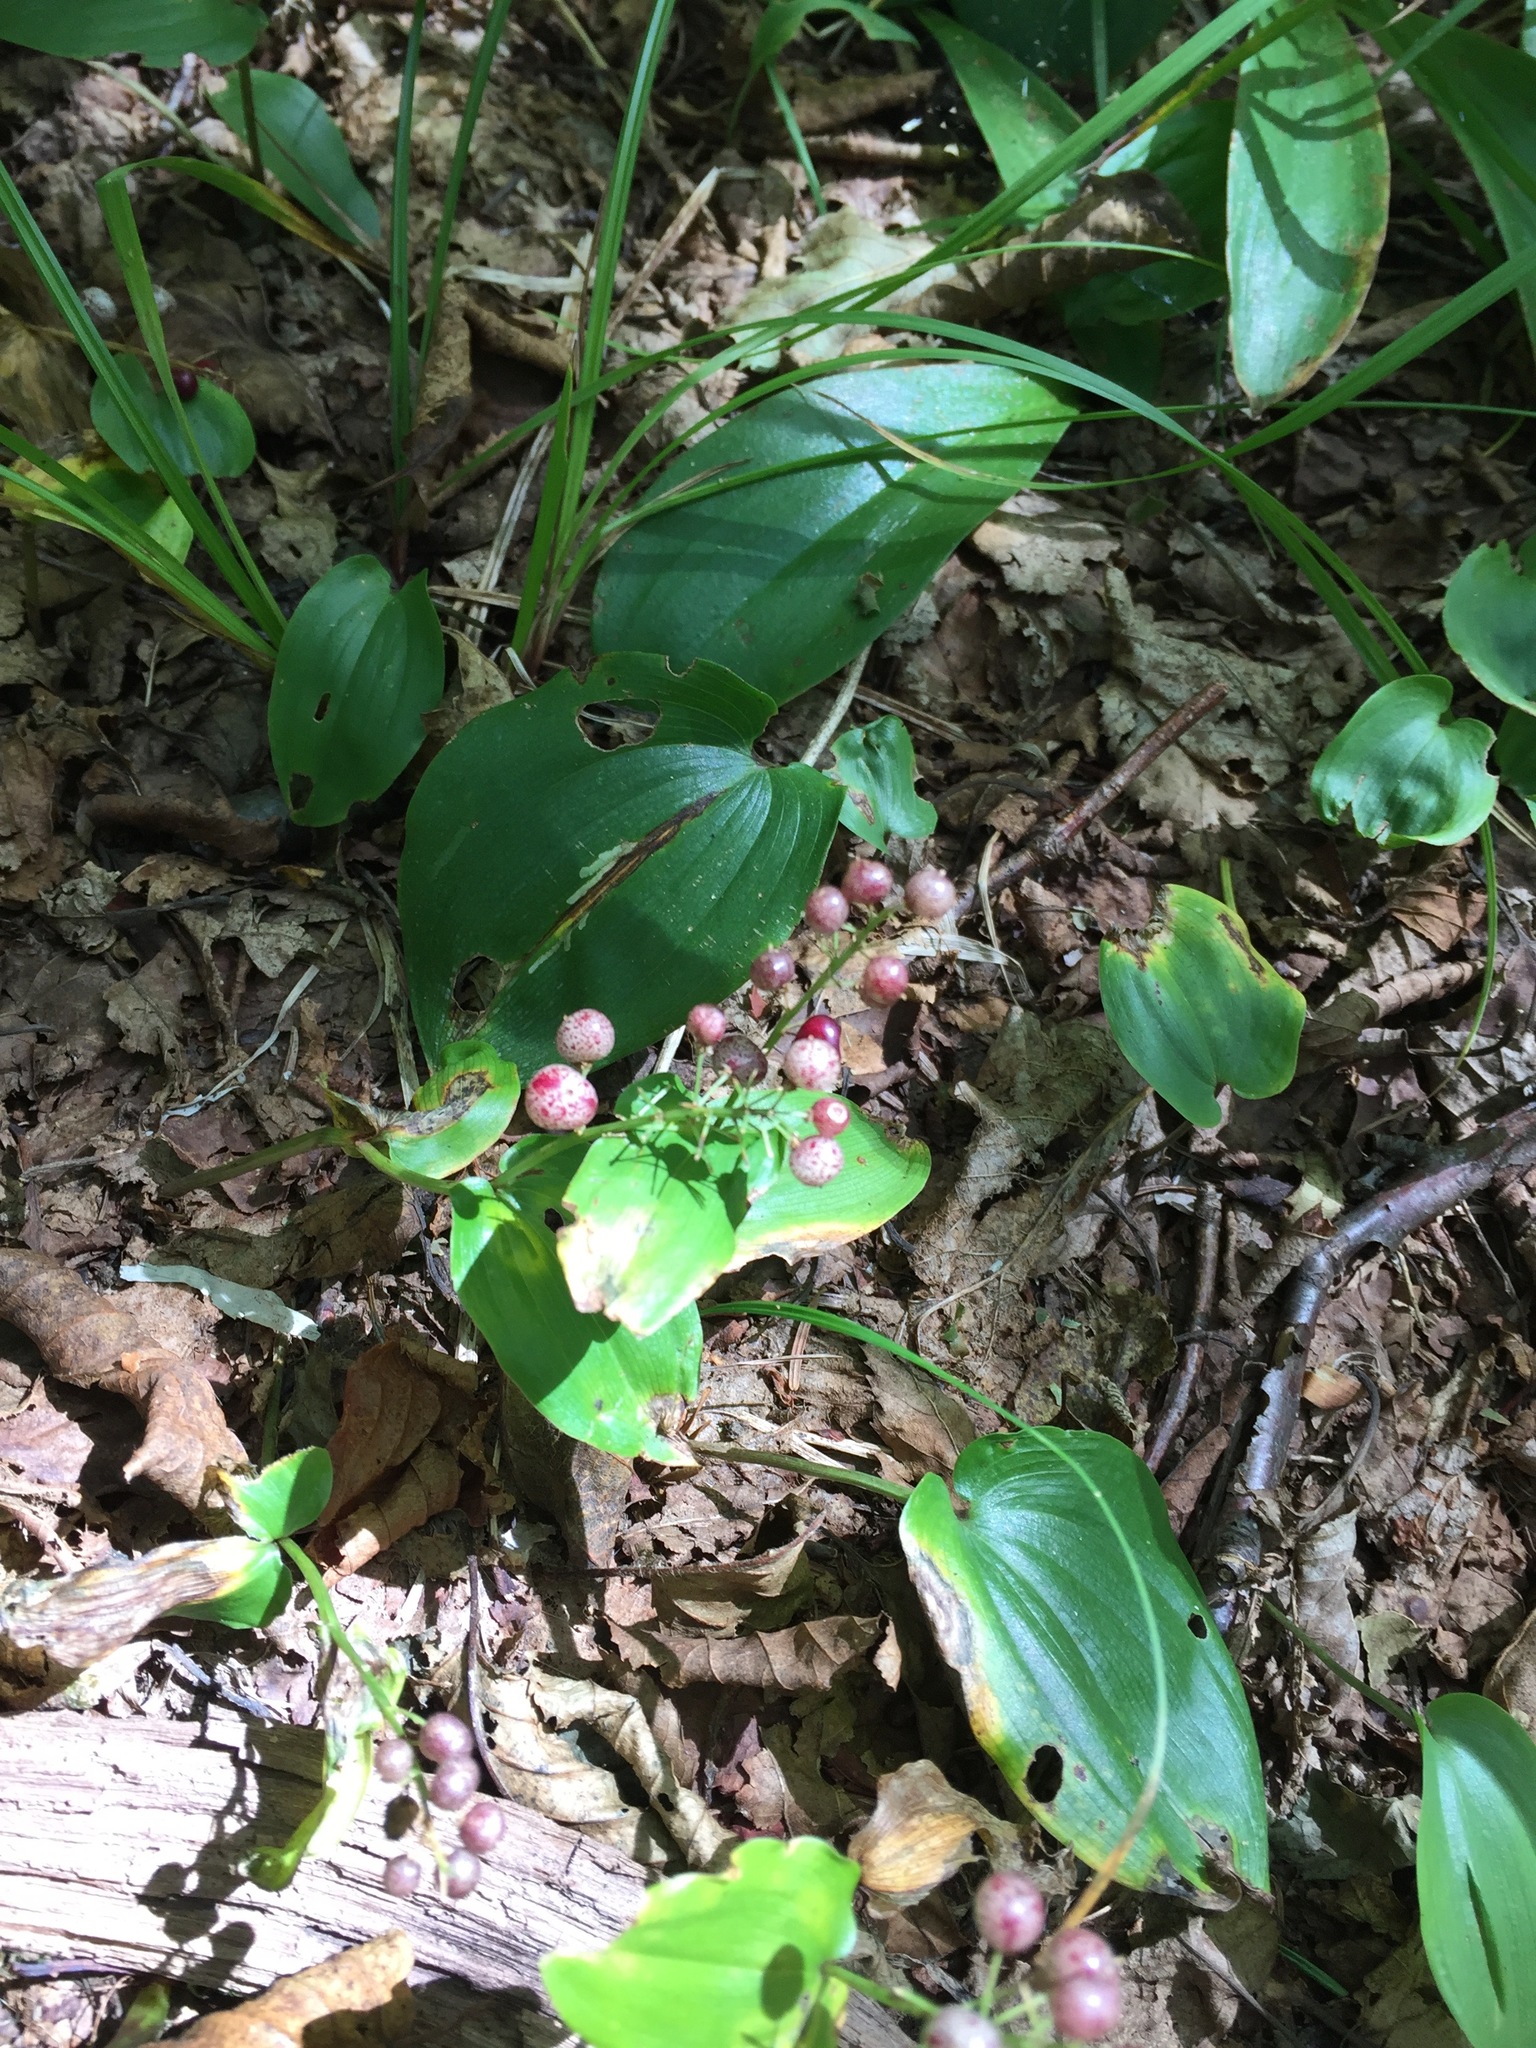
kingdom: Plantae
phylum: Tracheophyta
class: Liliopsida
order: Asparagales
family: Asparagaceae
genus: Maianthemum
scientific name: Maianthemum canadense
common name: False lily-of-the-valley
